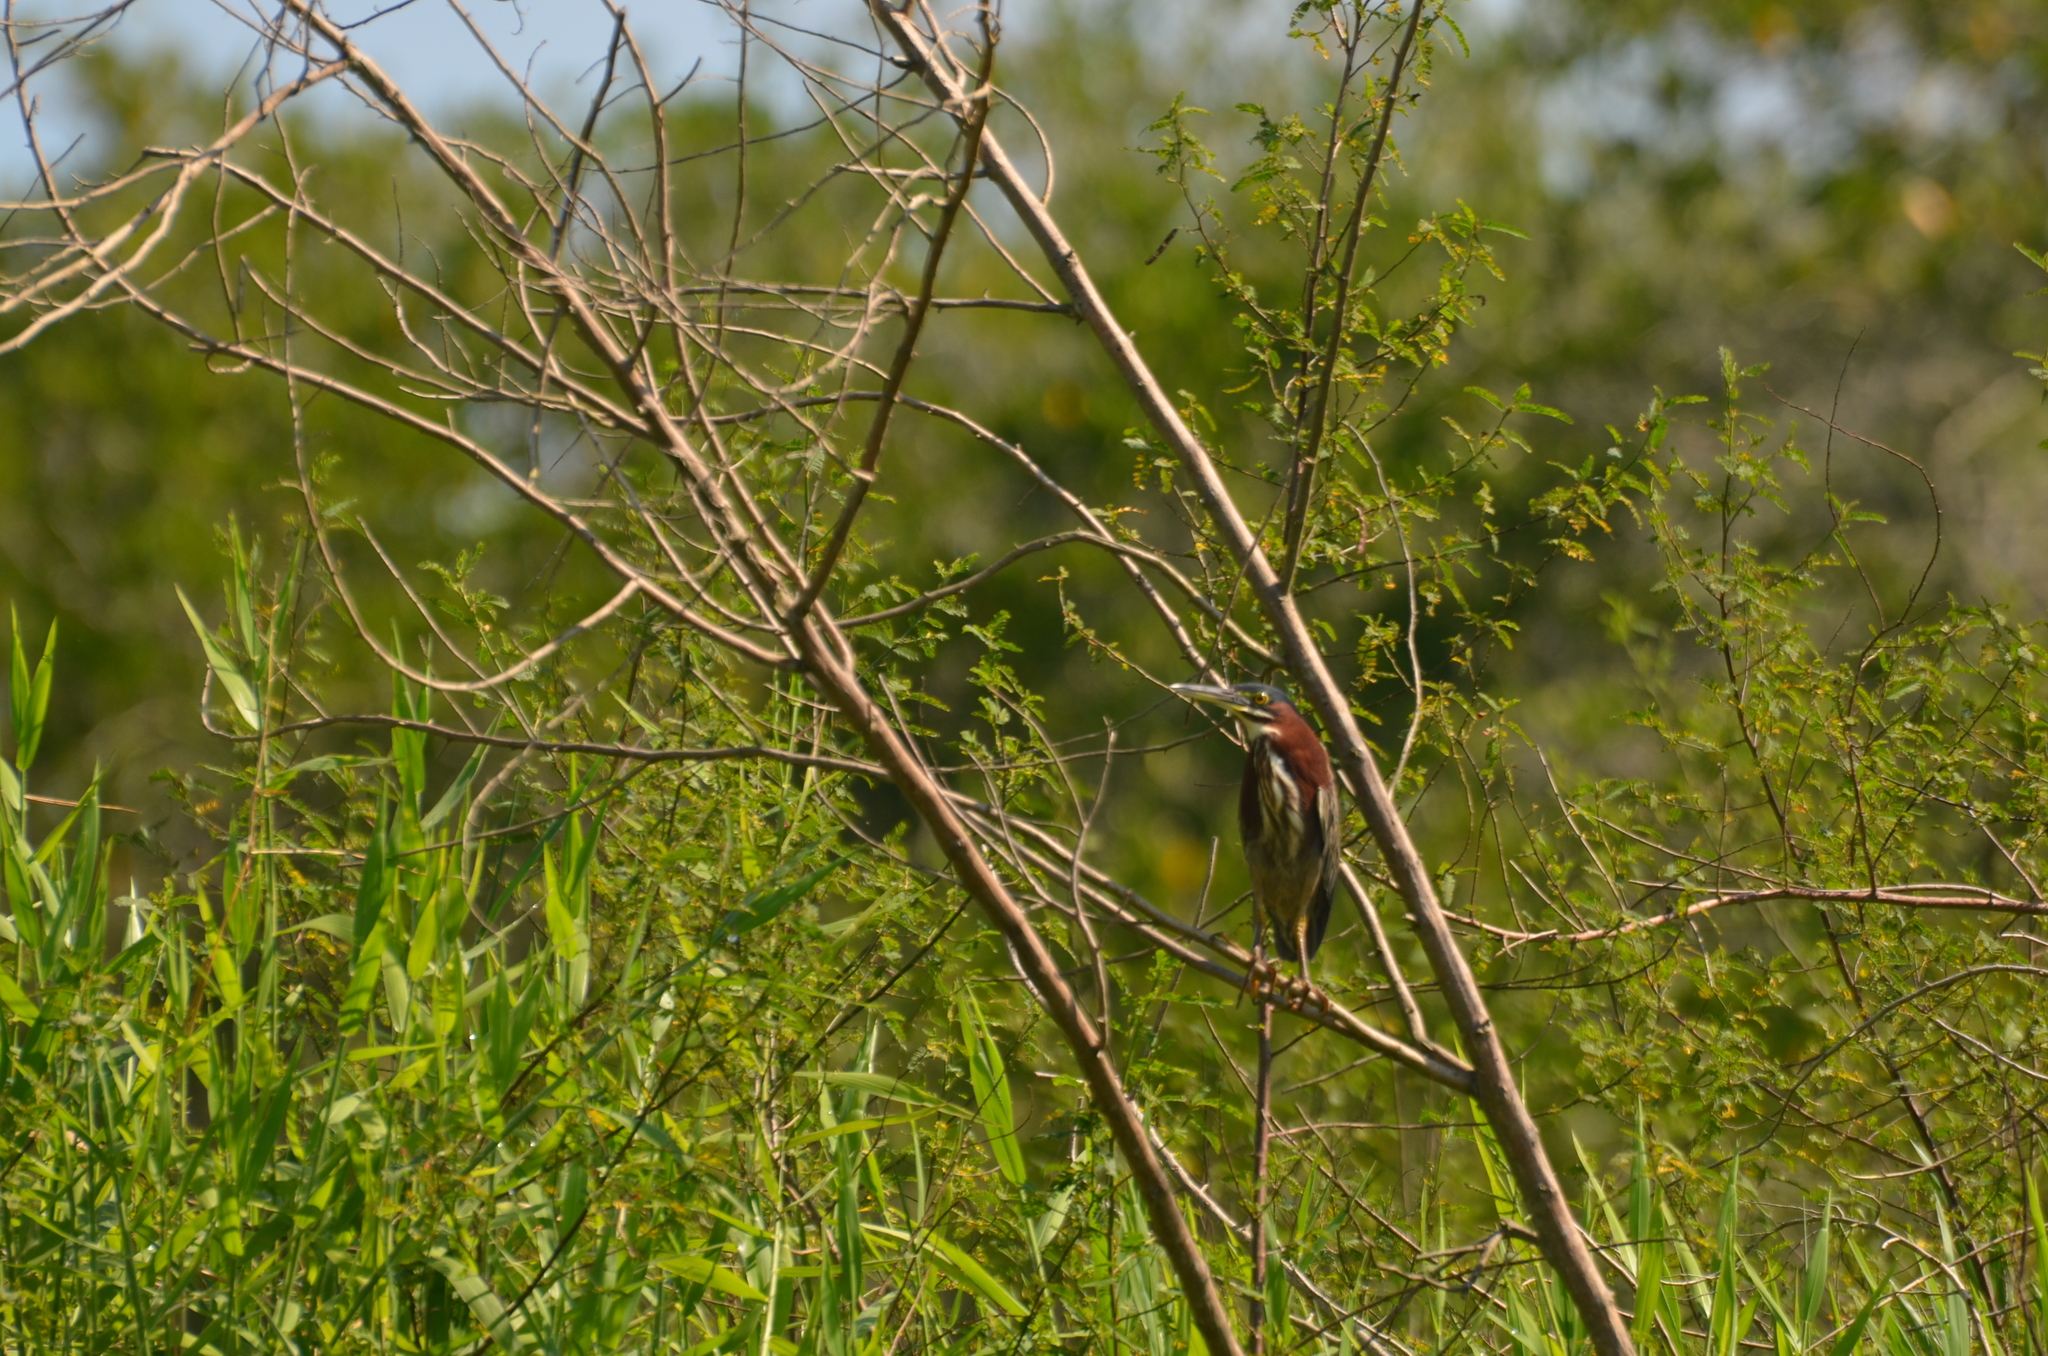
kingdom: Animalia
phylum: Chordata
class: Aves
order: Pelecaniformes
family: Ardeidae
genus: Butorides
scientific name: Butorides virescens
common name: Green heron
